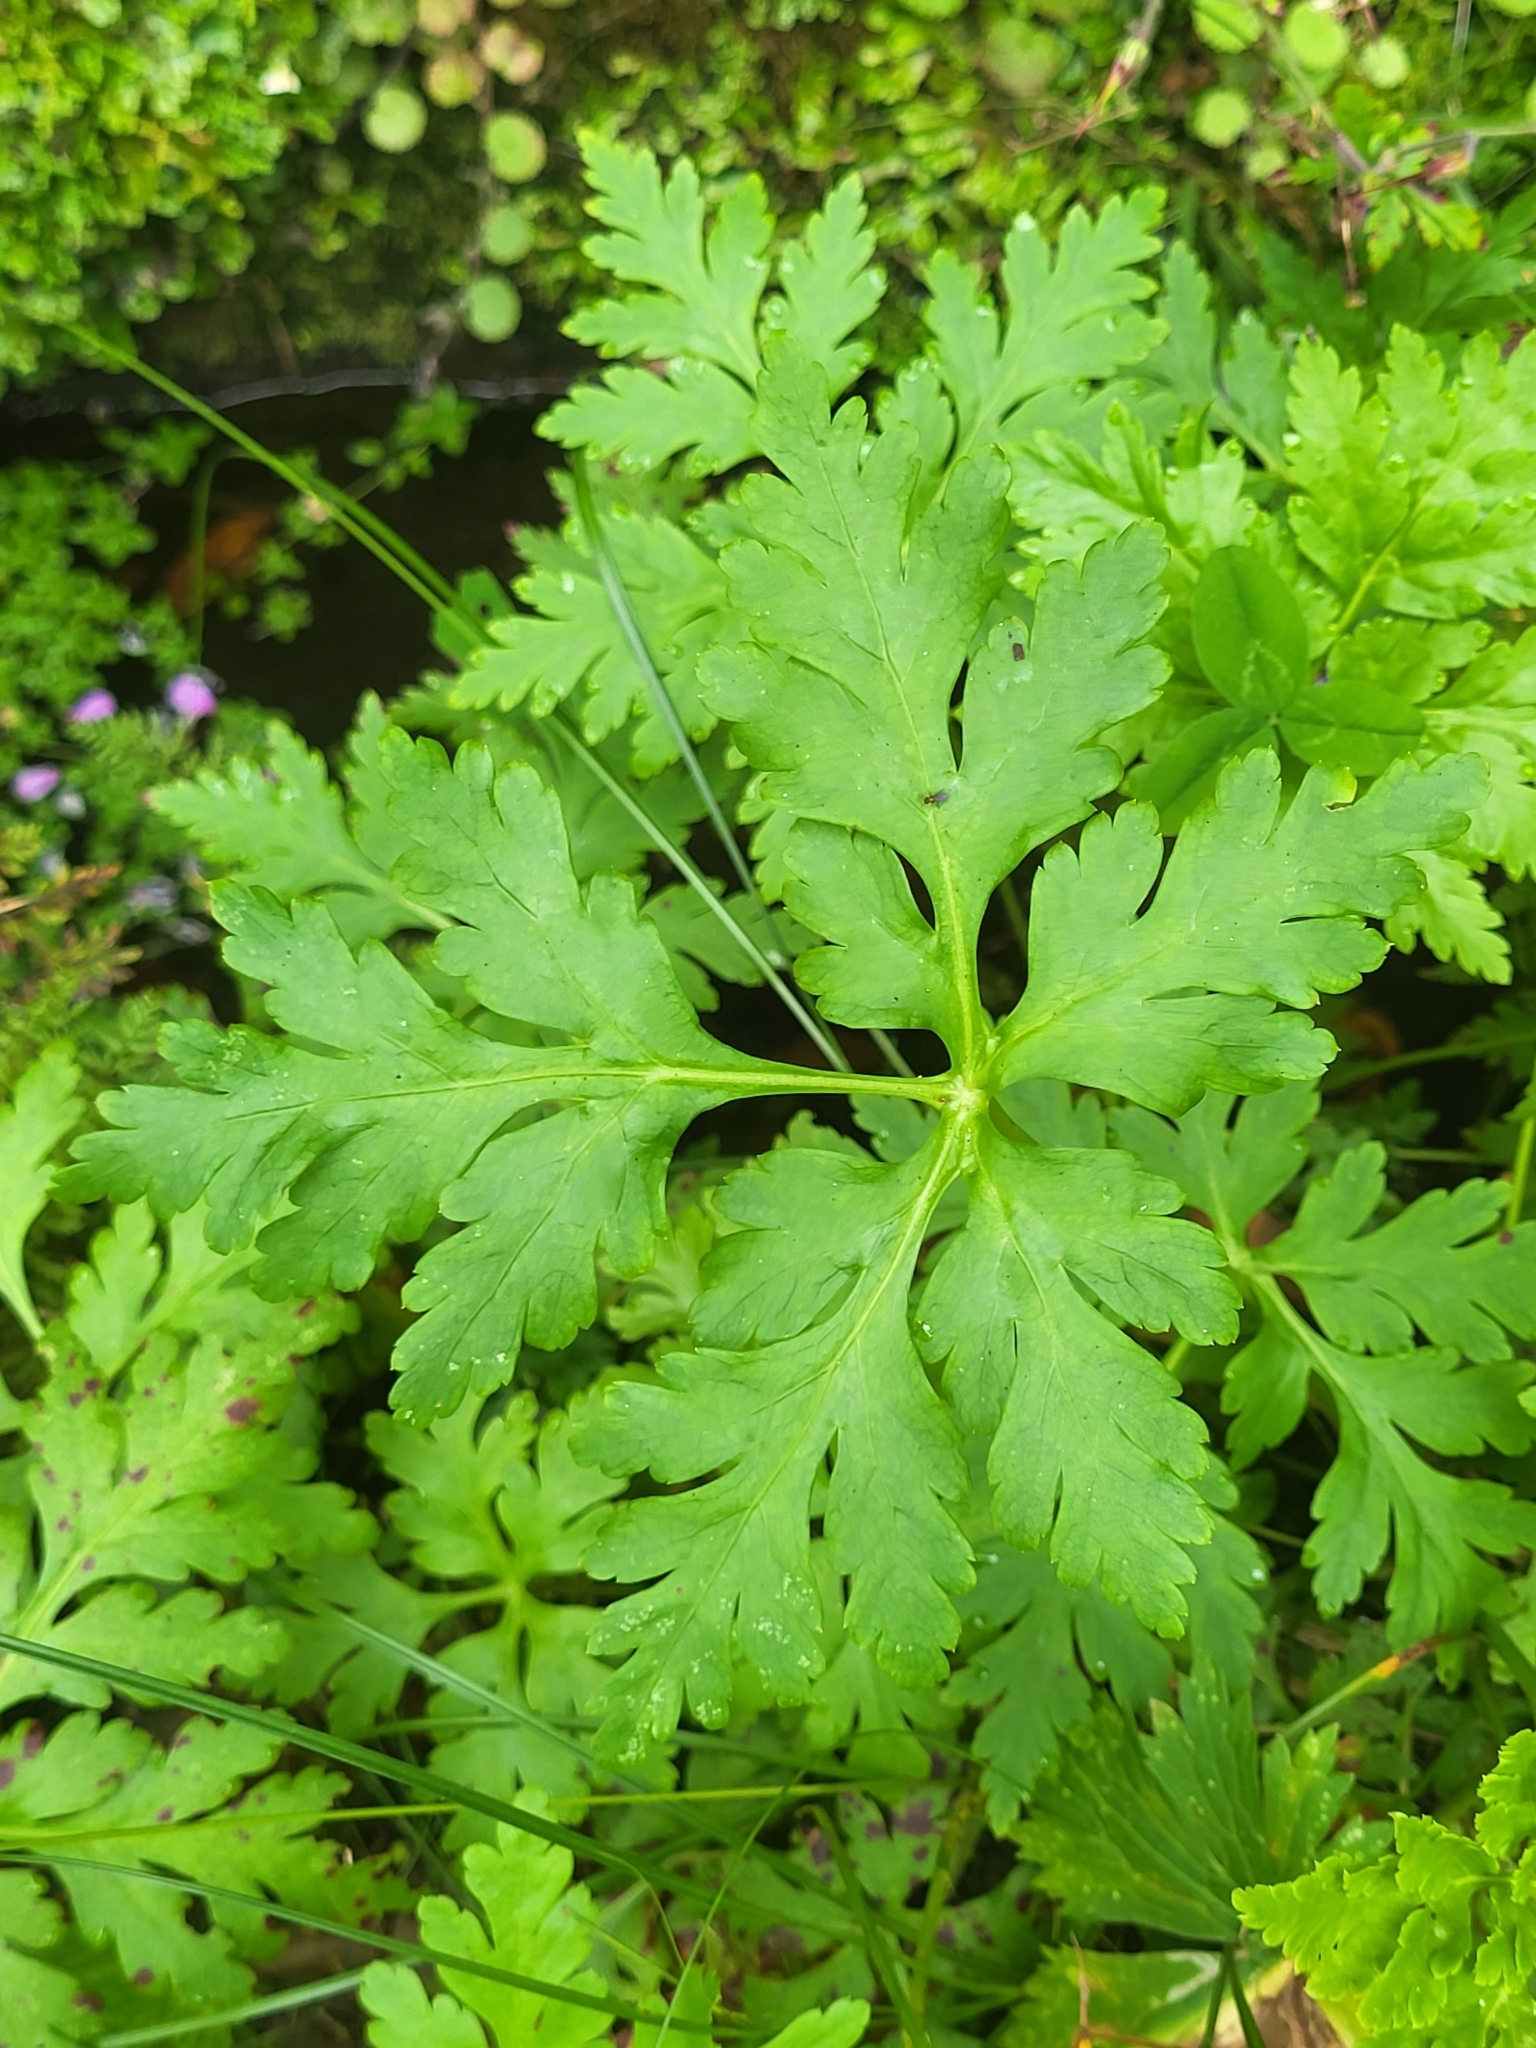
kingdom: Plantae
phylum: Tracheophyta
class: Magnoliopsida
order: Geraniales
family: Geraniaceae
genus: Geranium
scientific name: Geranium palmatum
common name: Canary island geranium
